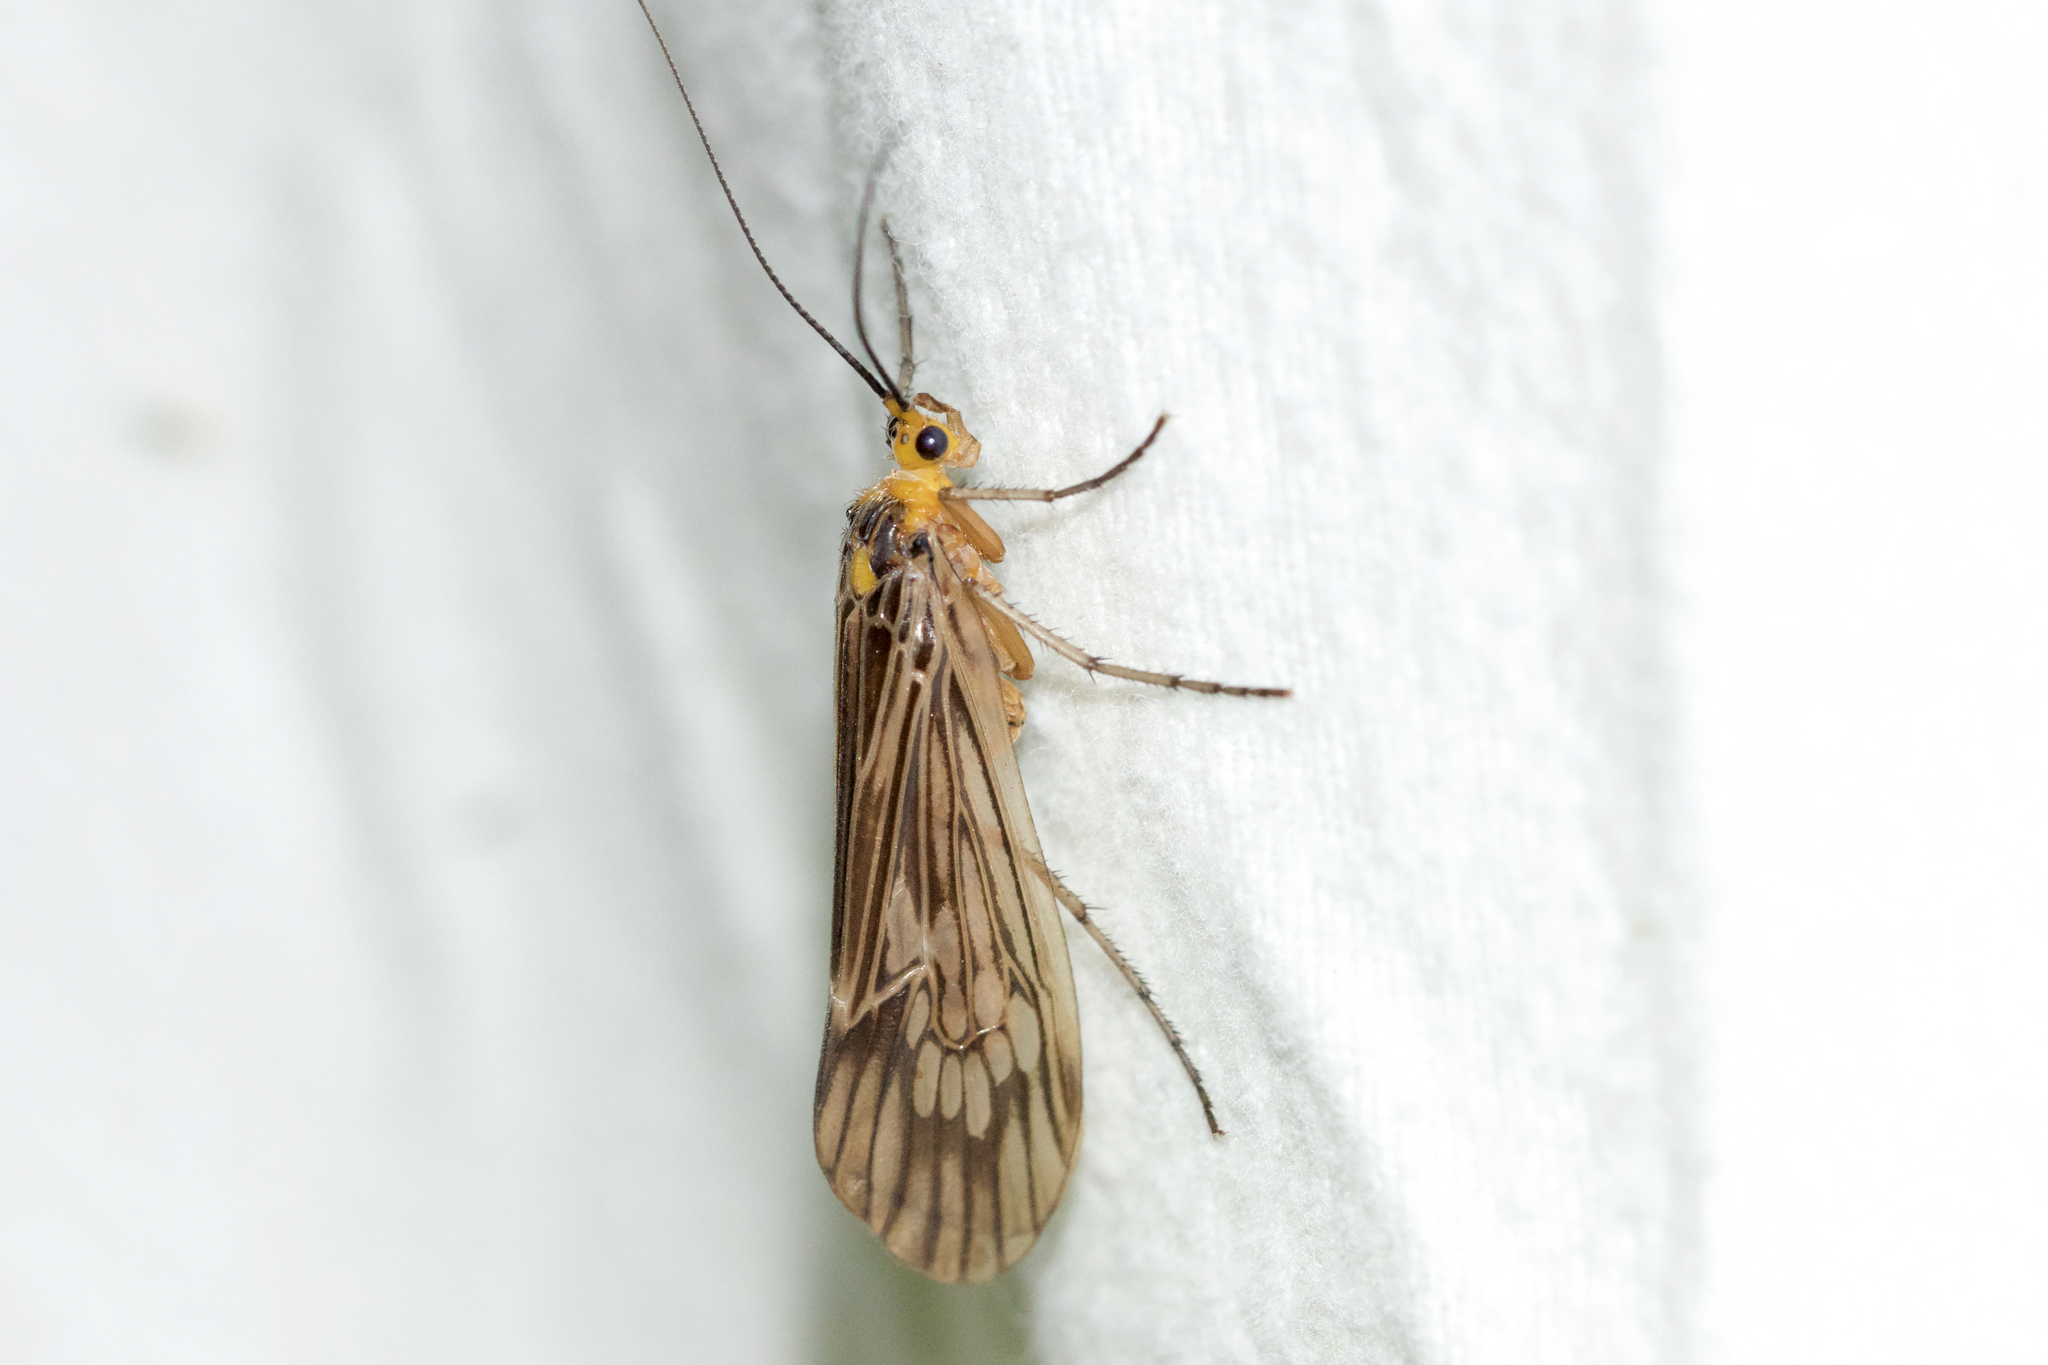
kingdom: Animalia
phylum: Arthropoda
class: Insecta
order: Trichoptera
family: Limnephilidae
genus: Hydatophylax
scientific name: Hydatophylax argus
